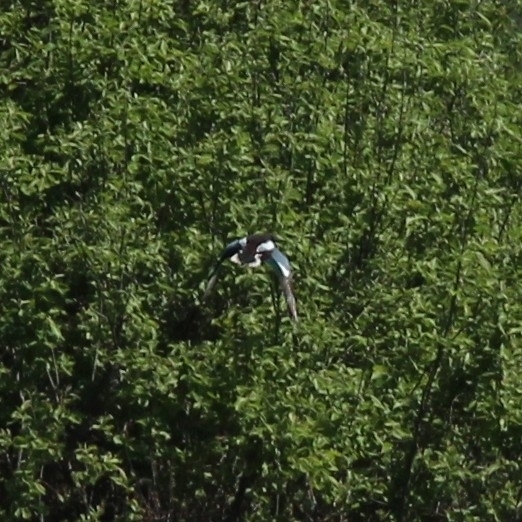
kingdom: Animalia
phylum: Chordata
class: Aves
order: Anseriformes
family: Anatidae
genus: Spatula
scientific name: Spatula clypeata
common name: Northern shoveler
